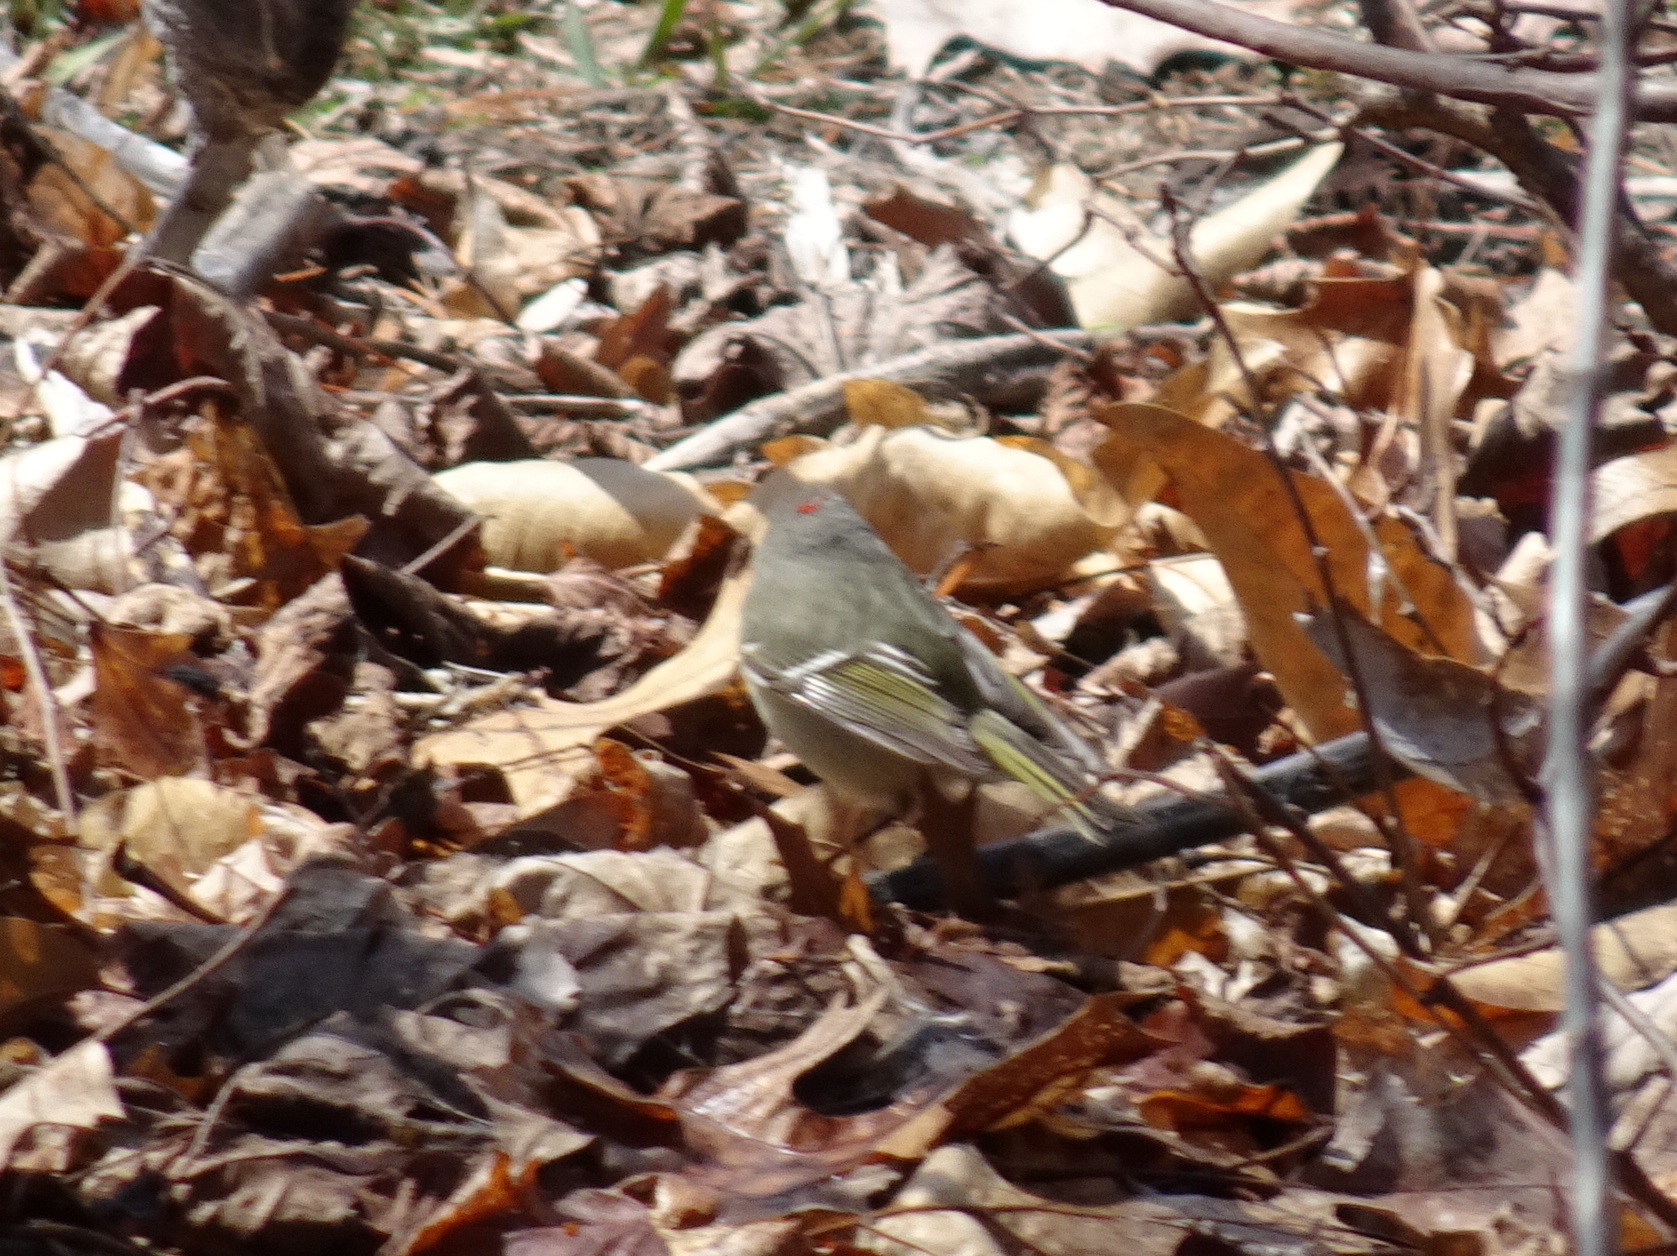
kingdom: Animalia
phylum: Chordata
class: Aves
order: Passeriformes
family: Regulidae
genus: Regulus
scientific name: Regulus calendula
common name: Ruby-crowned kinglet
